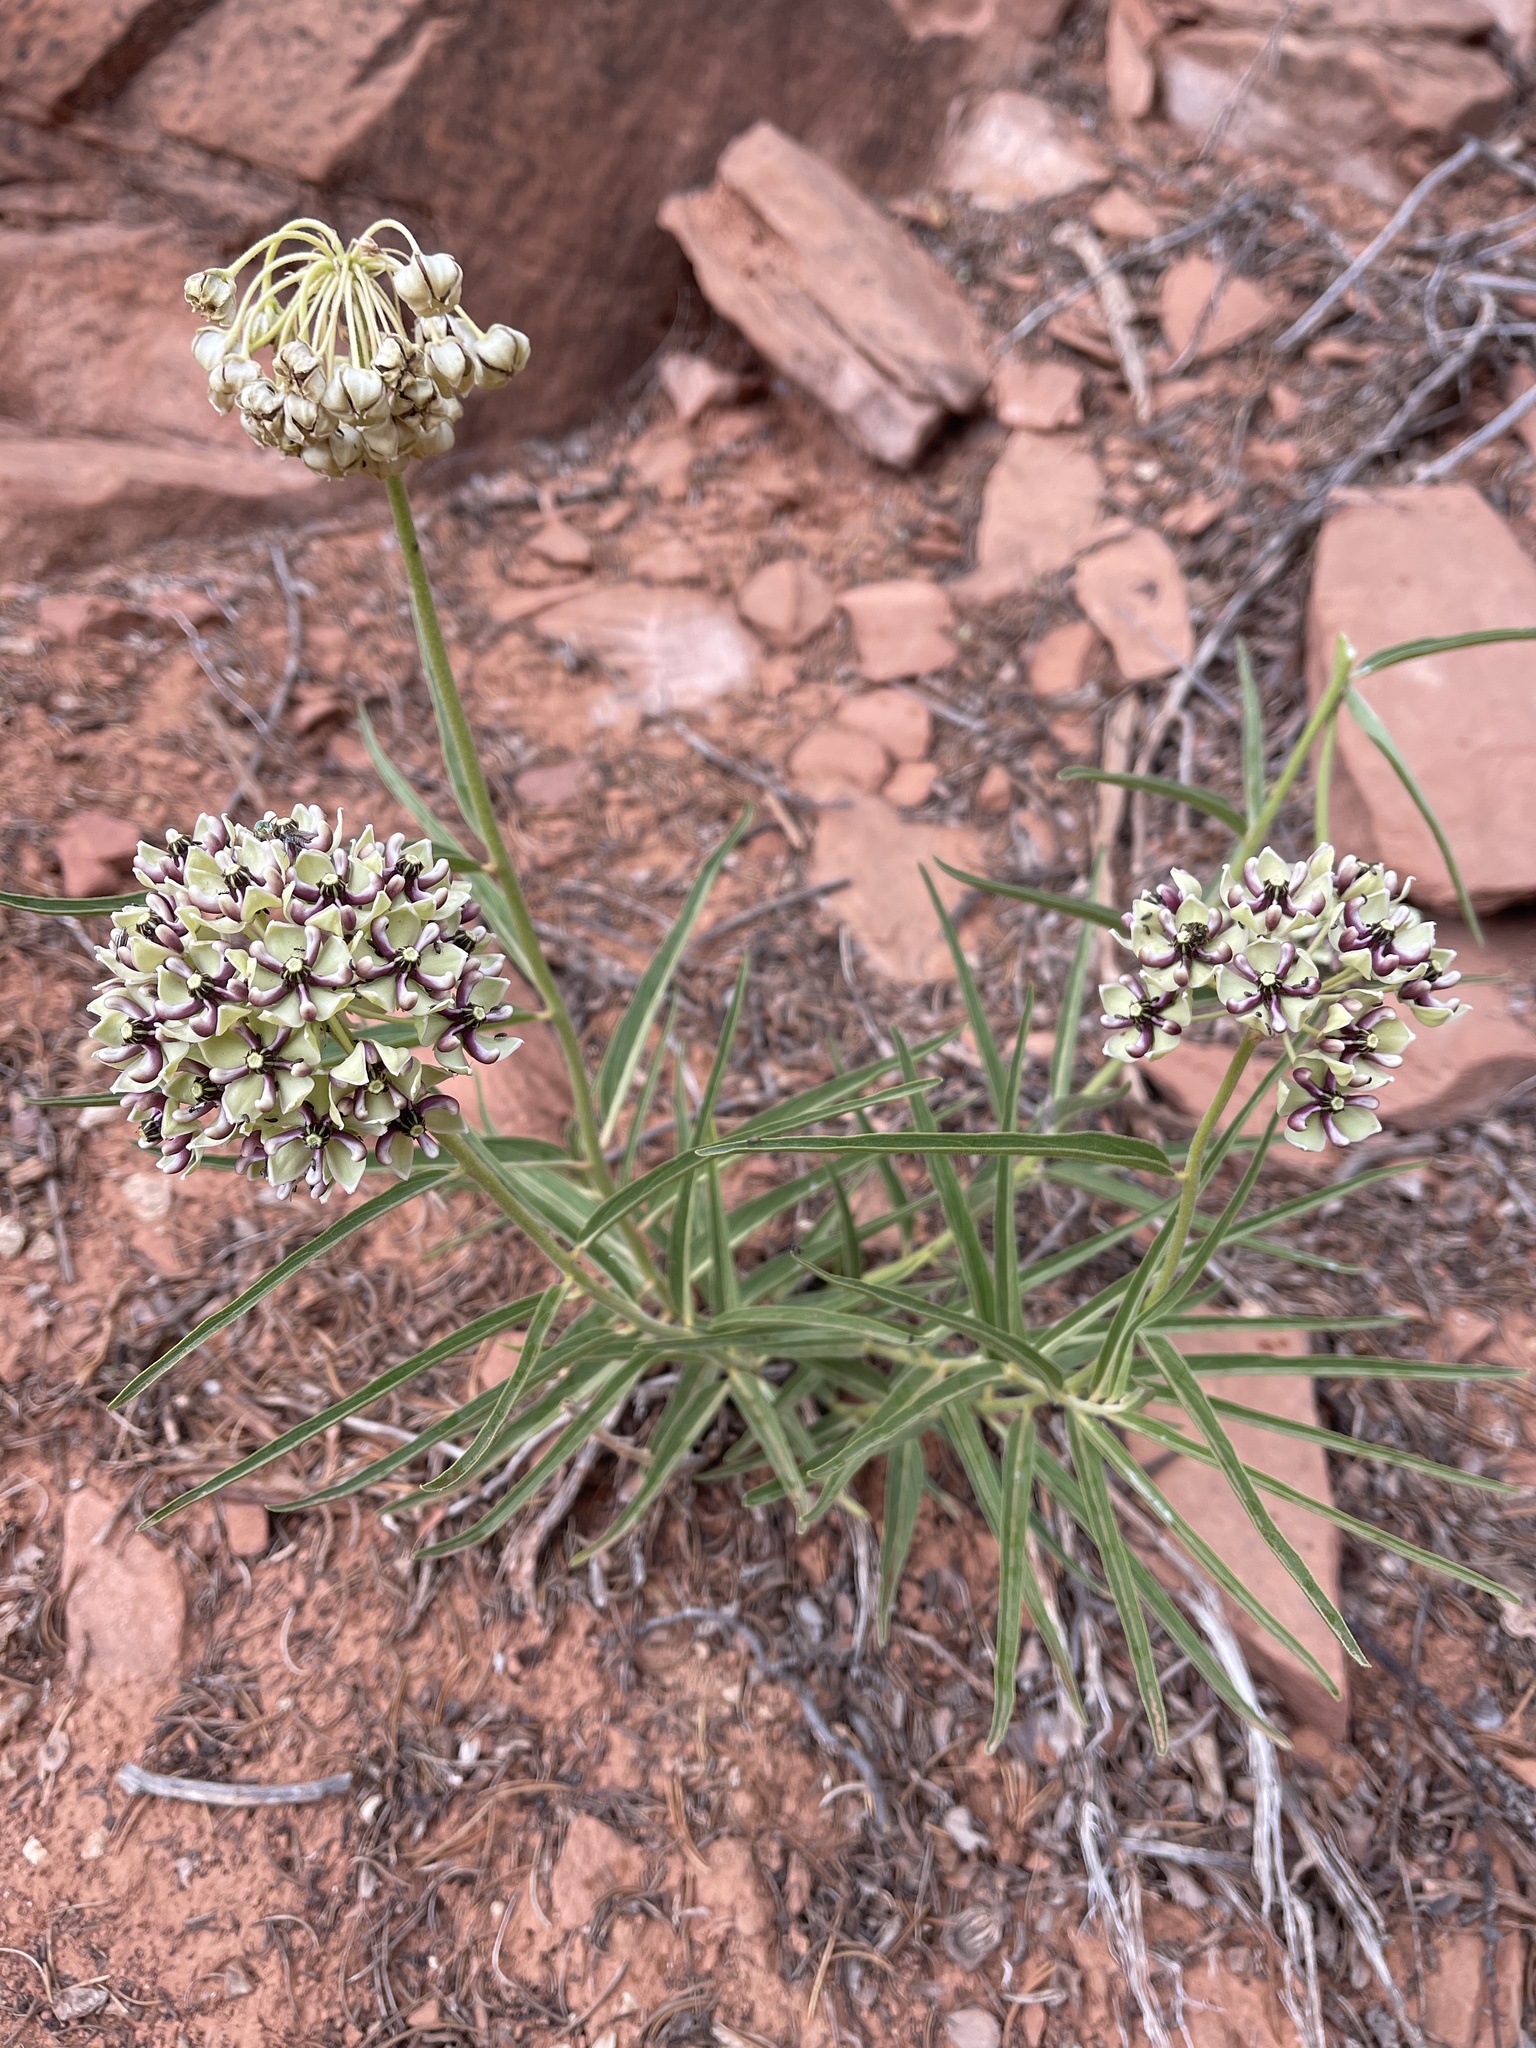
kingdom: Plantae
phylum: Tracheophyta
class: Magnoliopsida
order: Gentianales
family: Apocynaceae
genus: Asclepias
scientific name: Asclepias asperula
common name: Antelope horns
